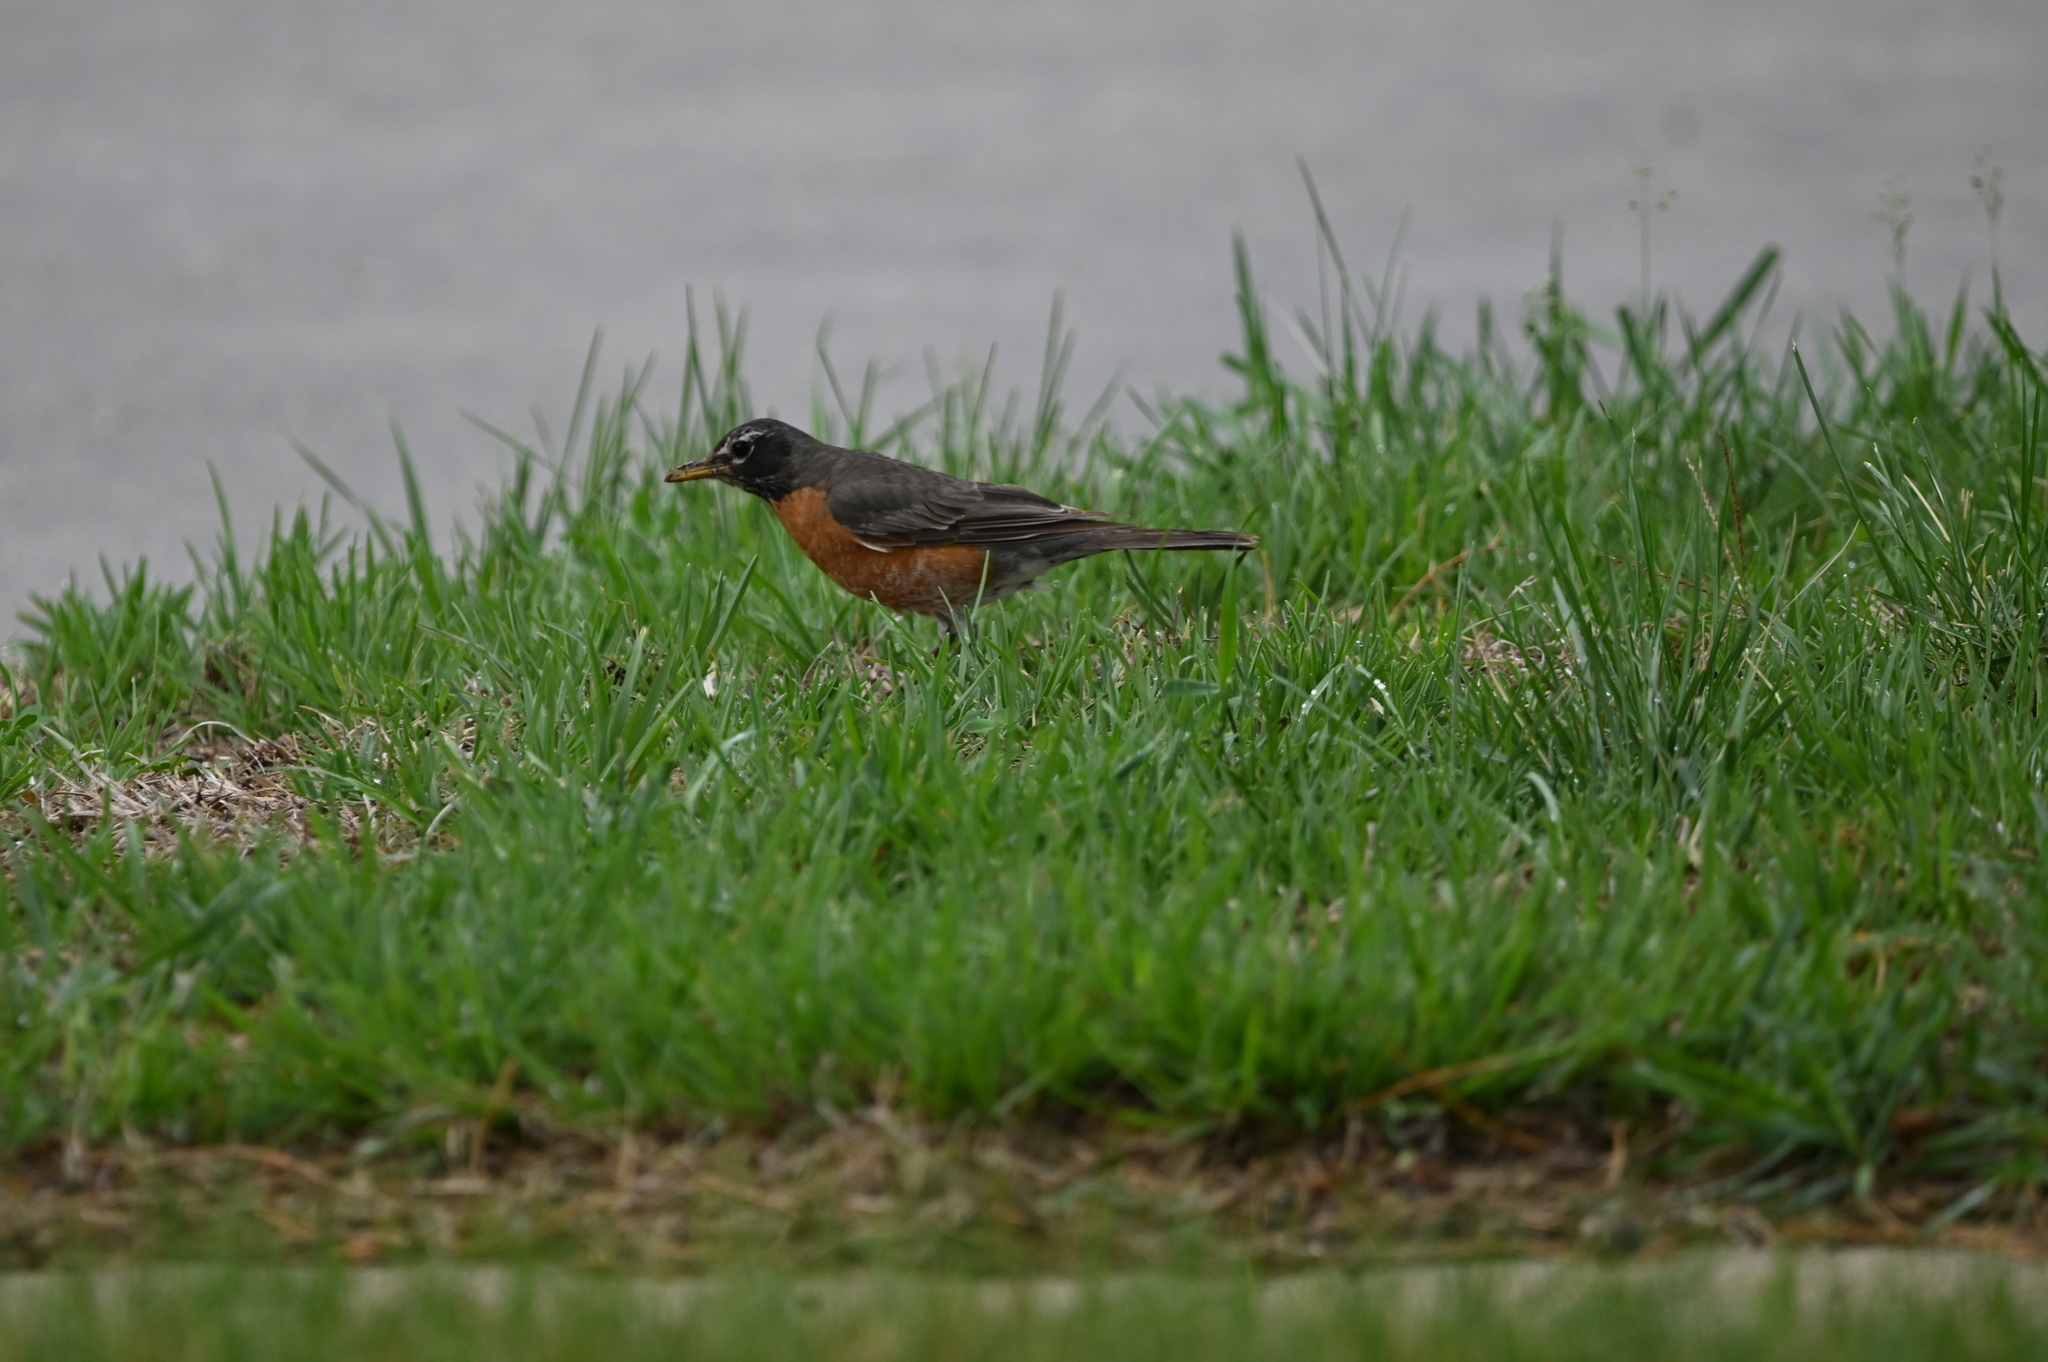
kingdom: Animalia
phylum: Chordata
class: Aves
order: Passeriformes
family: Turdidae
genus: Turdus
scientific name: Turdus migratorius
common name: American robin
